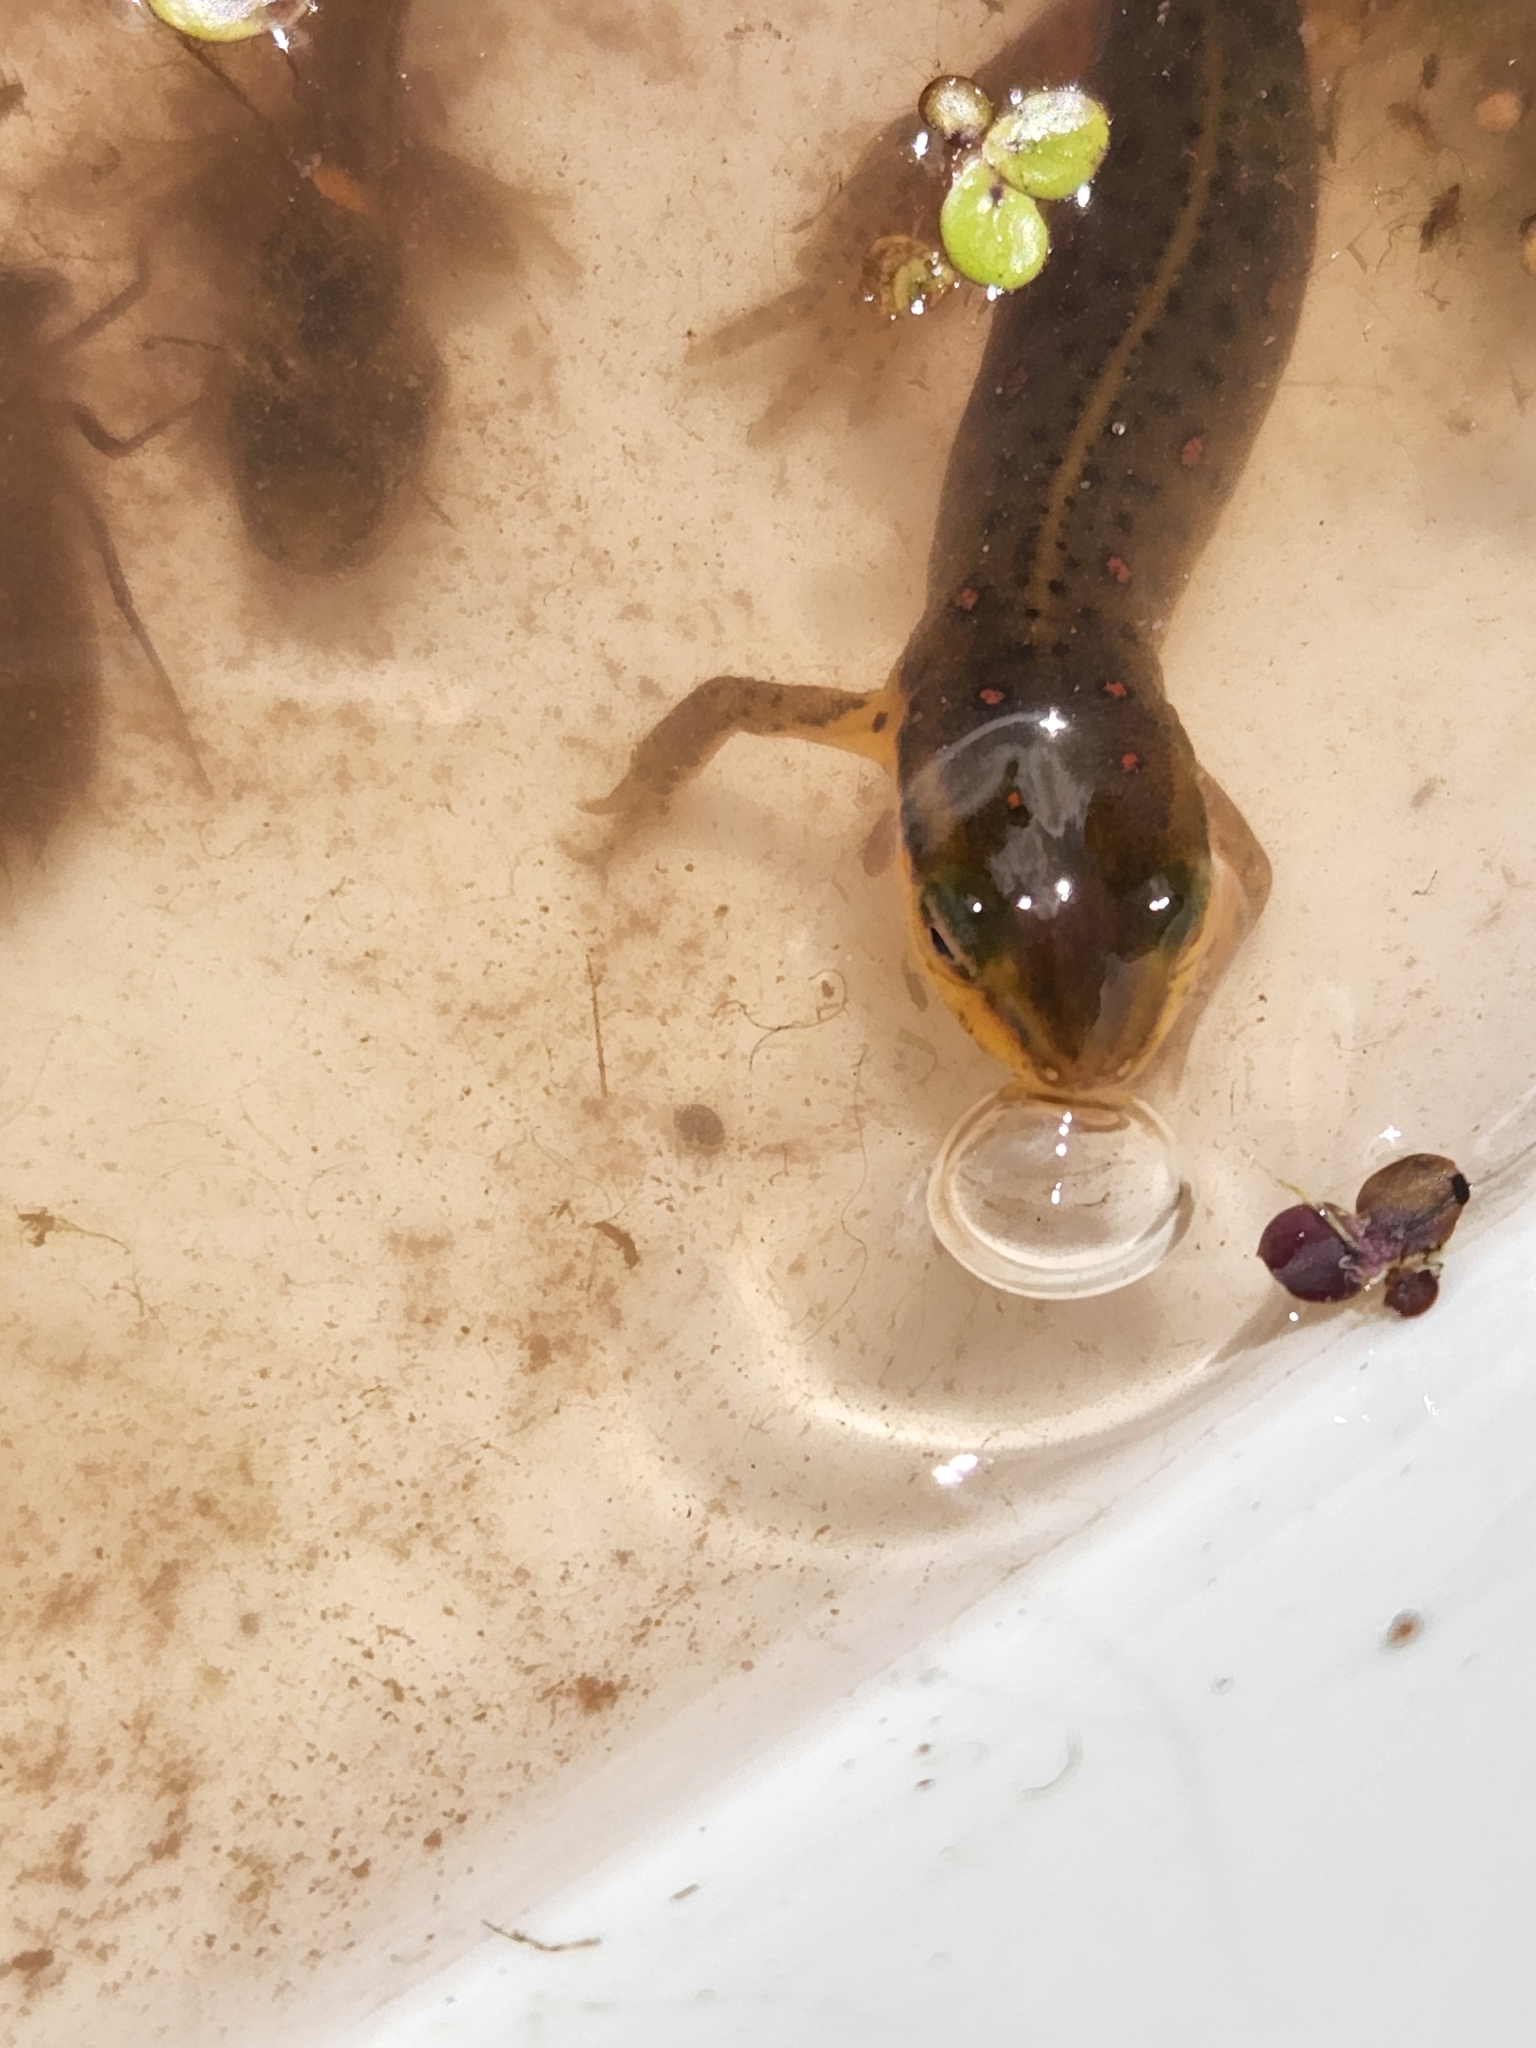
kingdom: Animalia
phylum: Chordata
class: Amphibia
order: Caudata
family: Salamandridae
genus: Notophthalmus
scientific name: Notophthalmus viridescens
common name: Eastern newt
